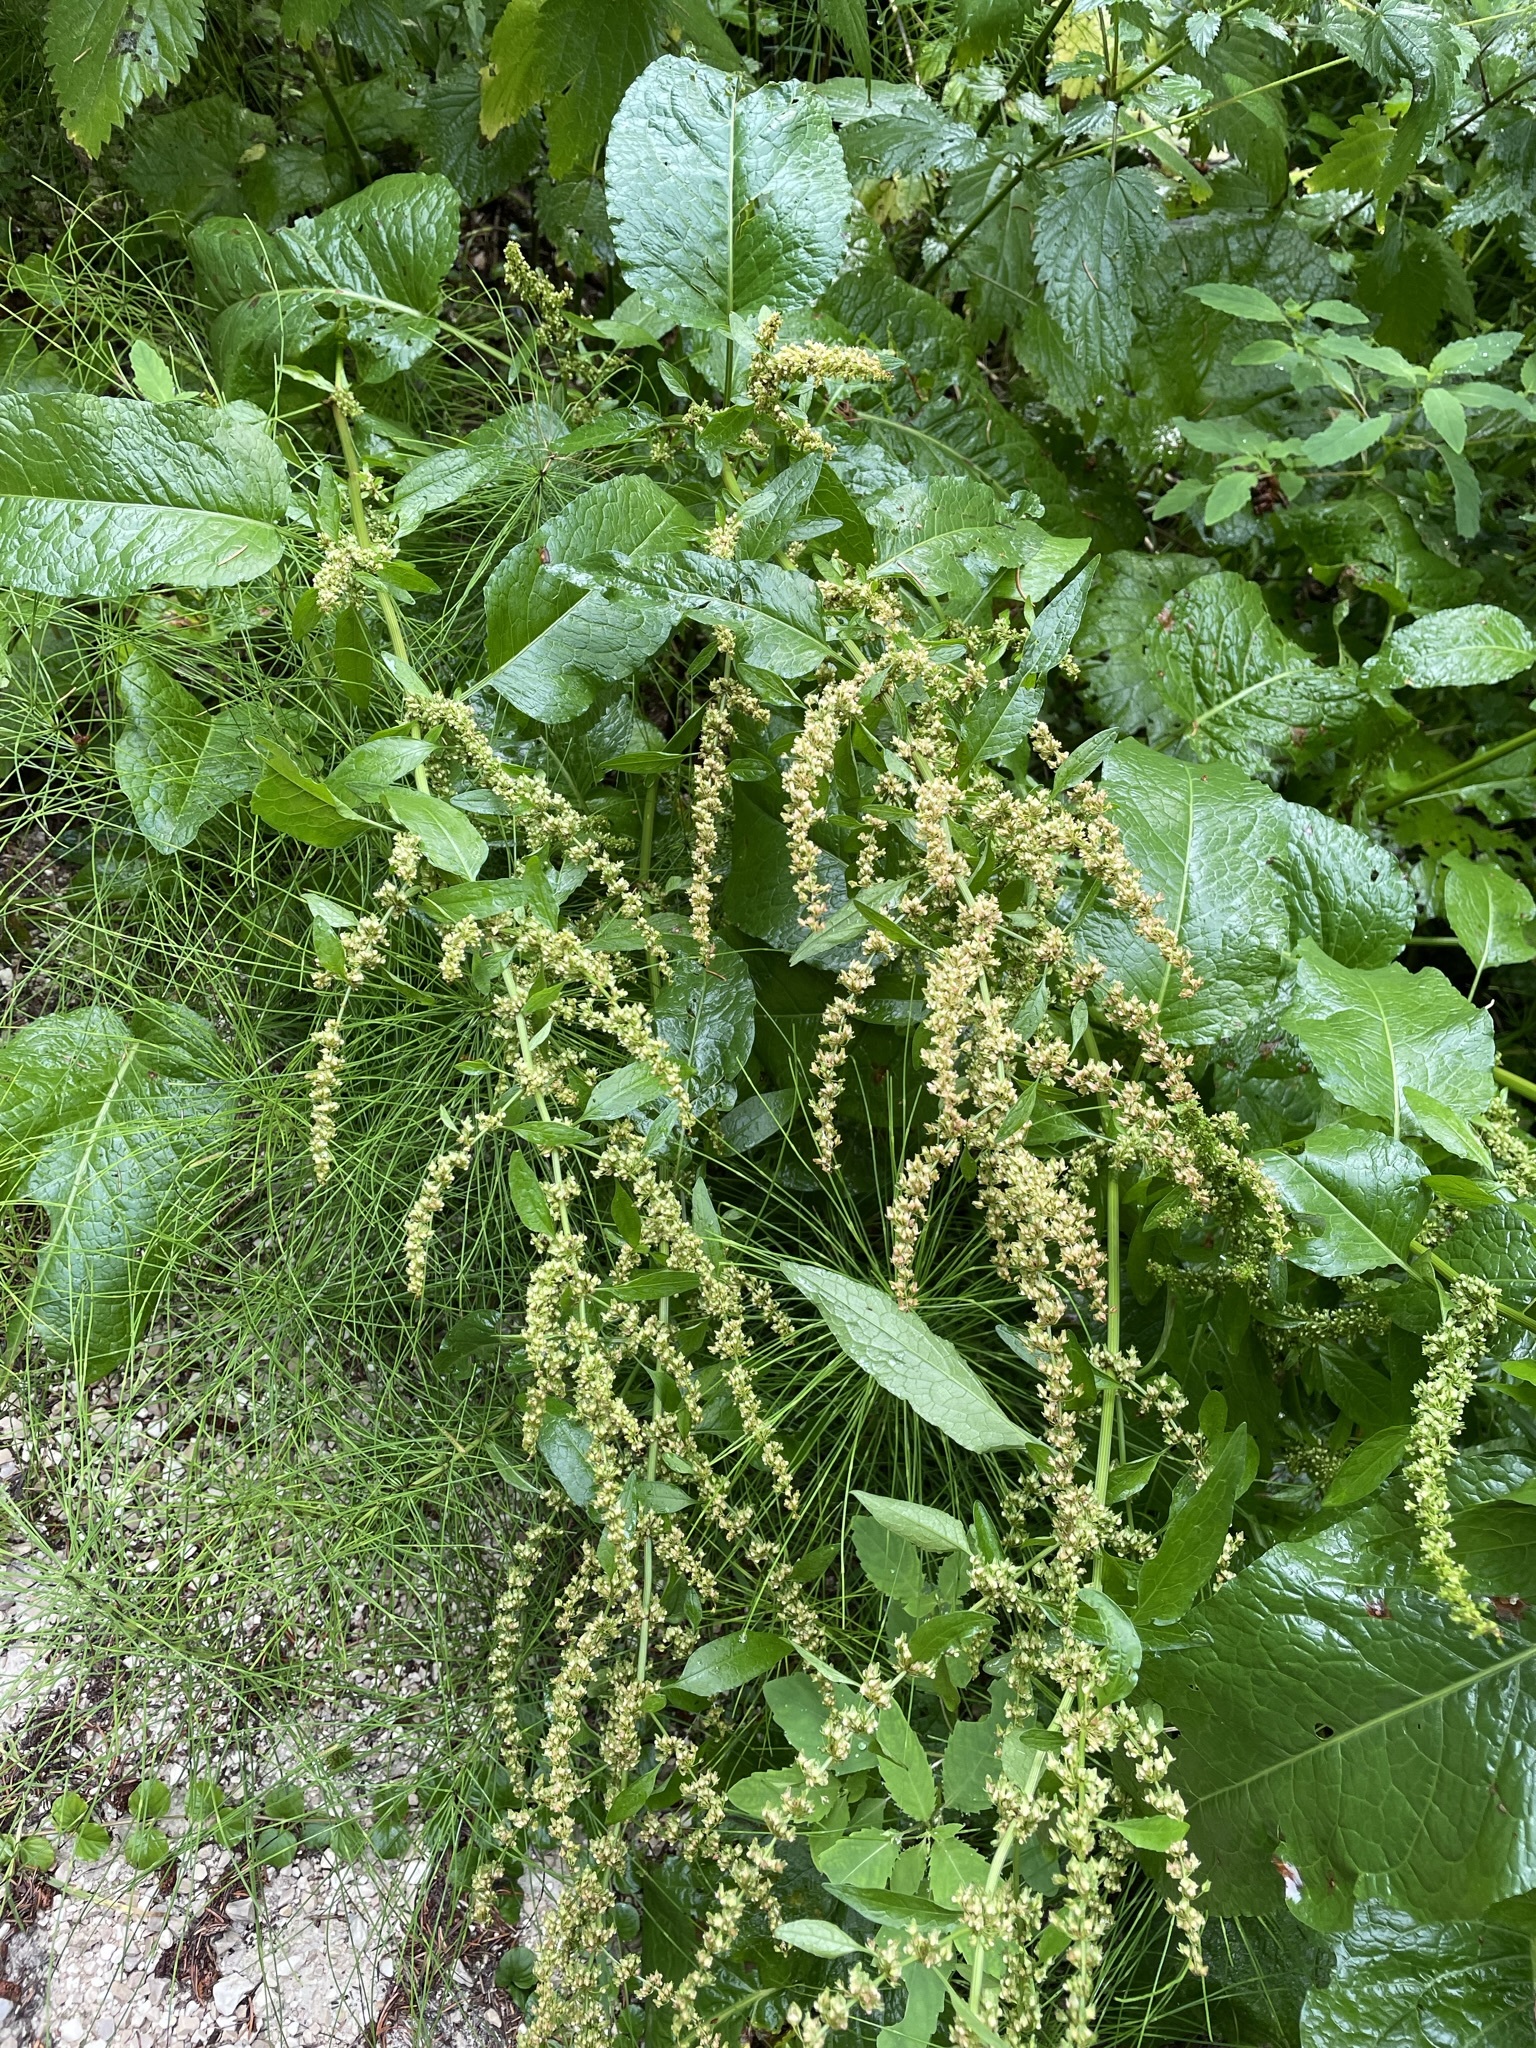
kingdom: Plantae
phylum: Tracheophyta
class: Magnoliopsida
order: Caryophyllales
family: Polygonaceae
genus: Rumex
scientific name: Rumex obtusifolius
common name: Bitter dock
